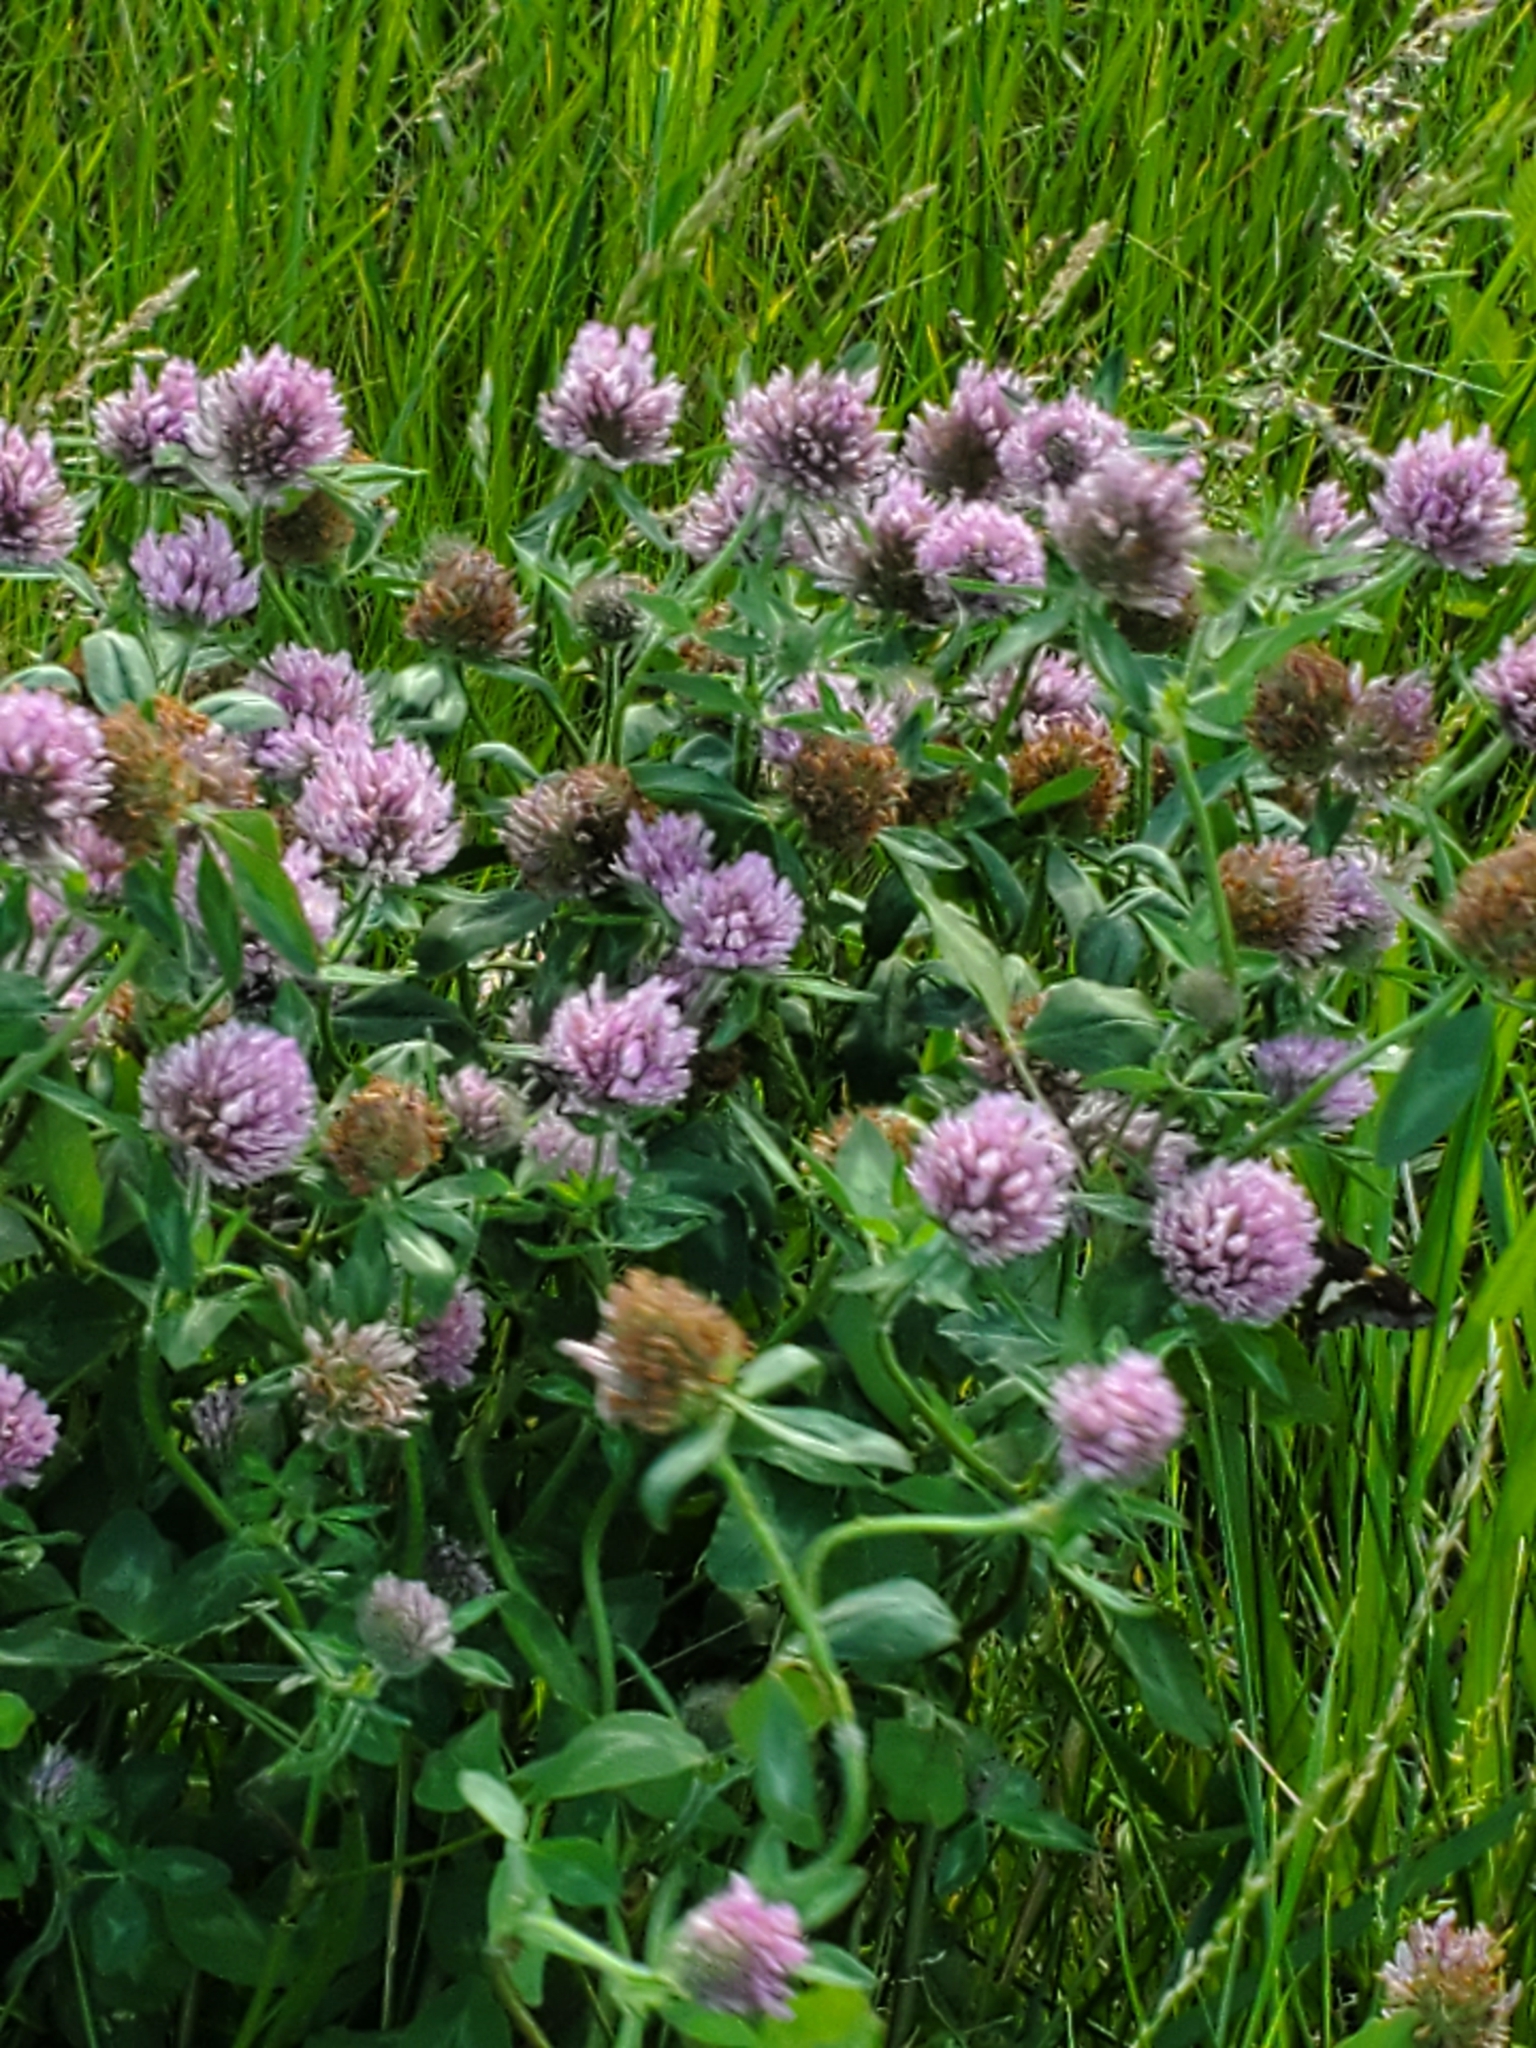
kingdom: Plantae
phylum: Tracheophyta
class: Magnoliopsida
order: Fabales
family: Fabaceae
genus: Trifolium
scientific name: Trifolium pratense
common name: Red clover
